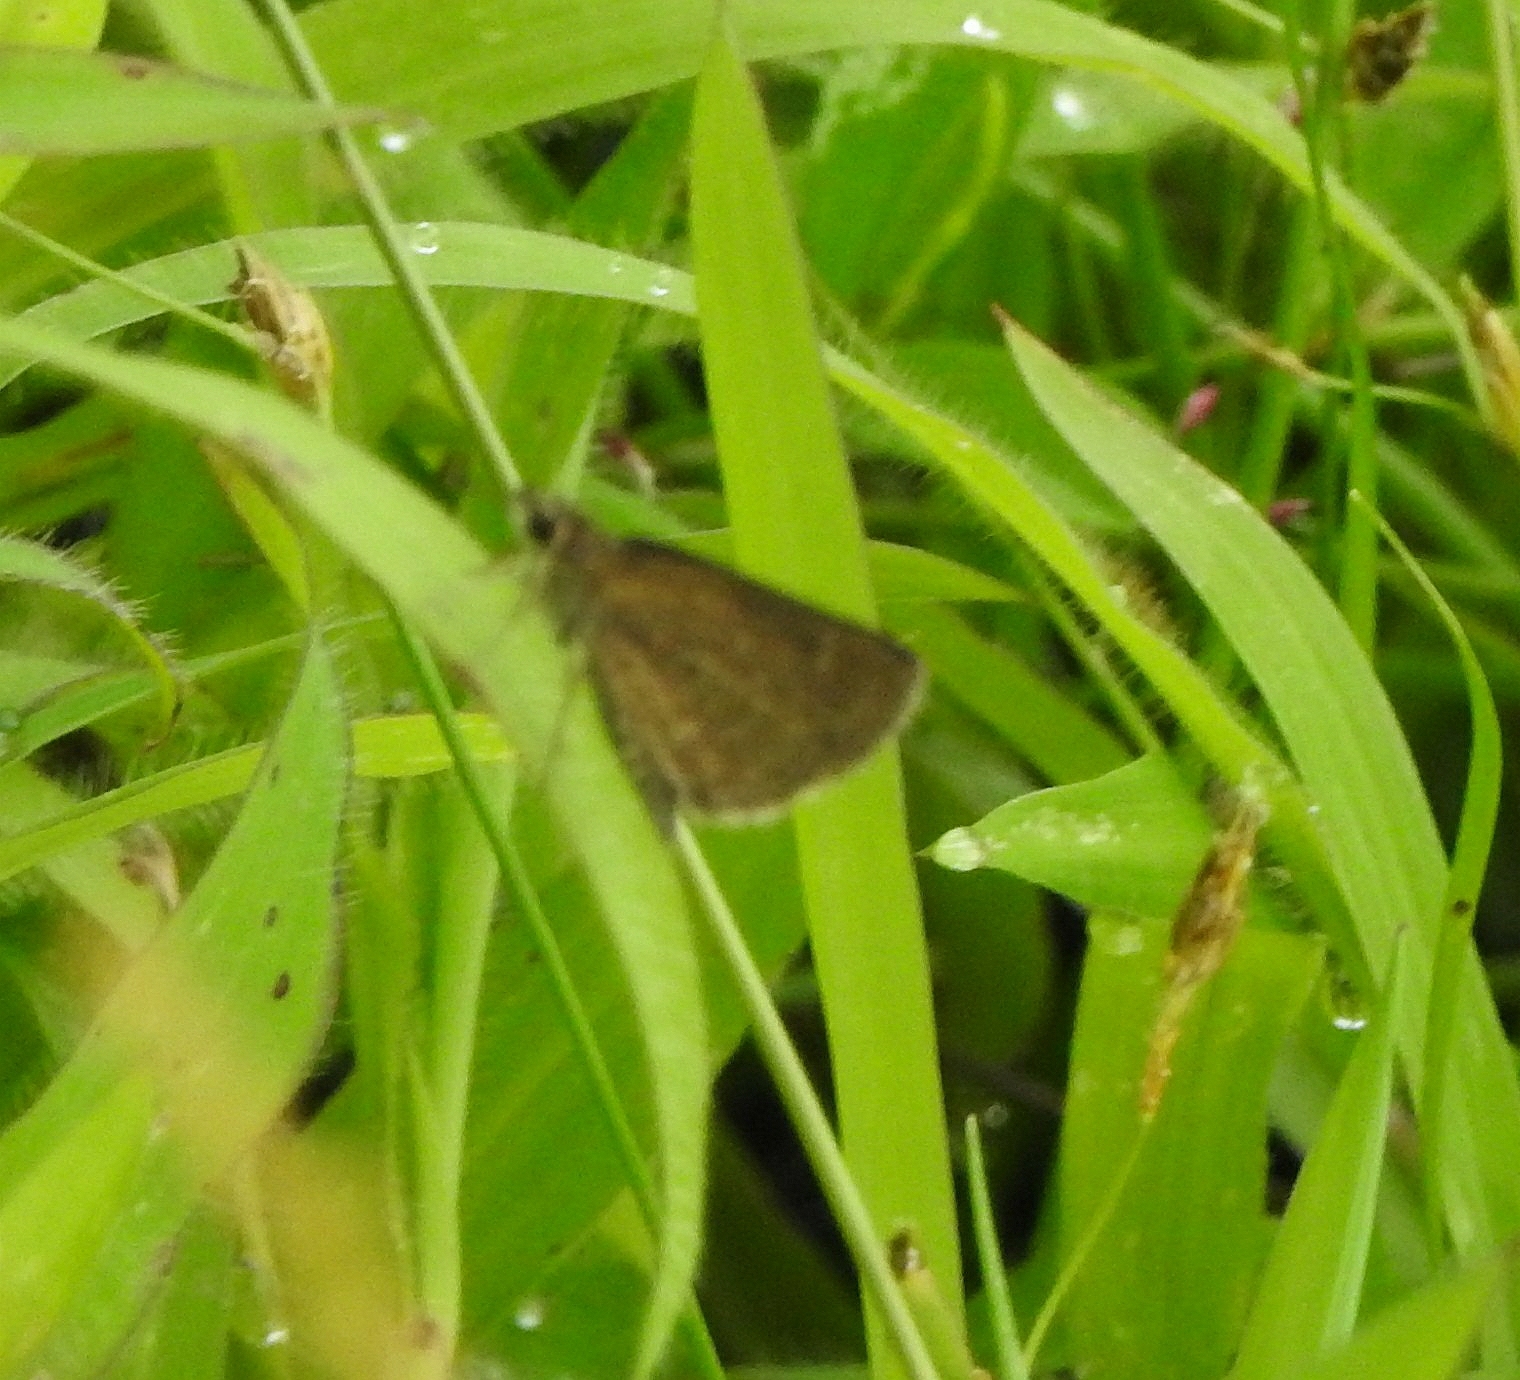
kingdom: Animalia
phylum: Arthropoda
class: Insecta
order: Lepidoptera
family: Hesperiidae
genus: Aeromachus
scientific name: Aeromachus pygmaeus
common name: Pygmy scrub hopper
